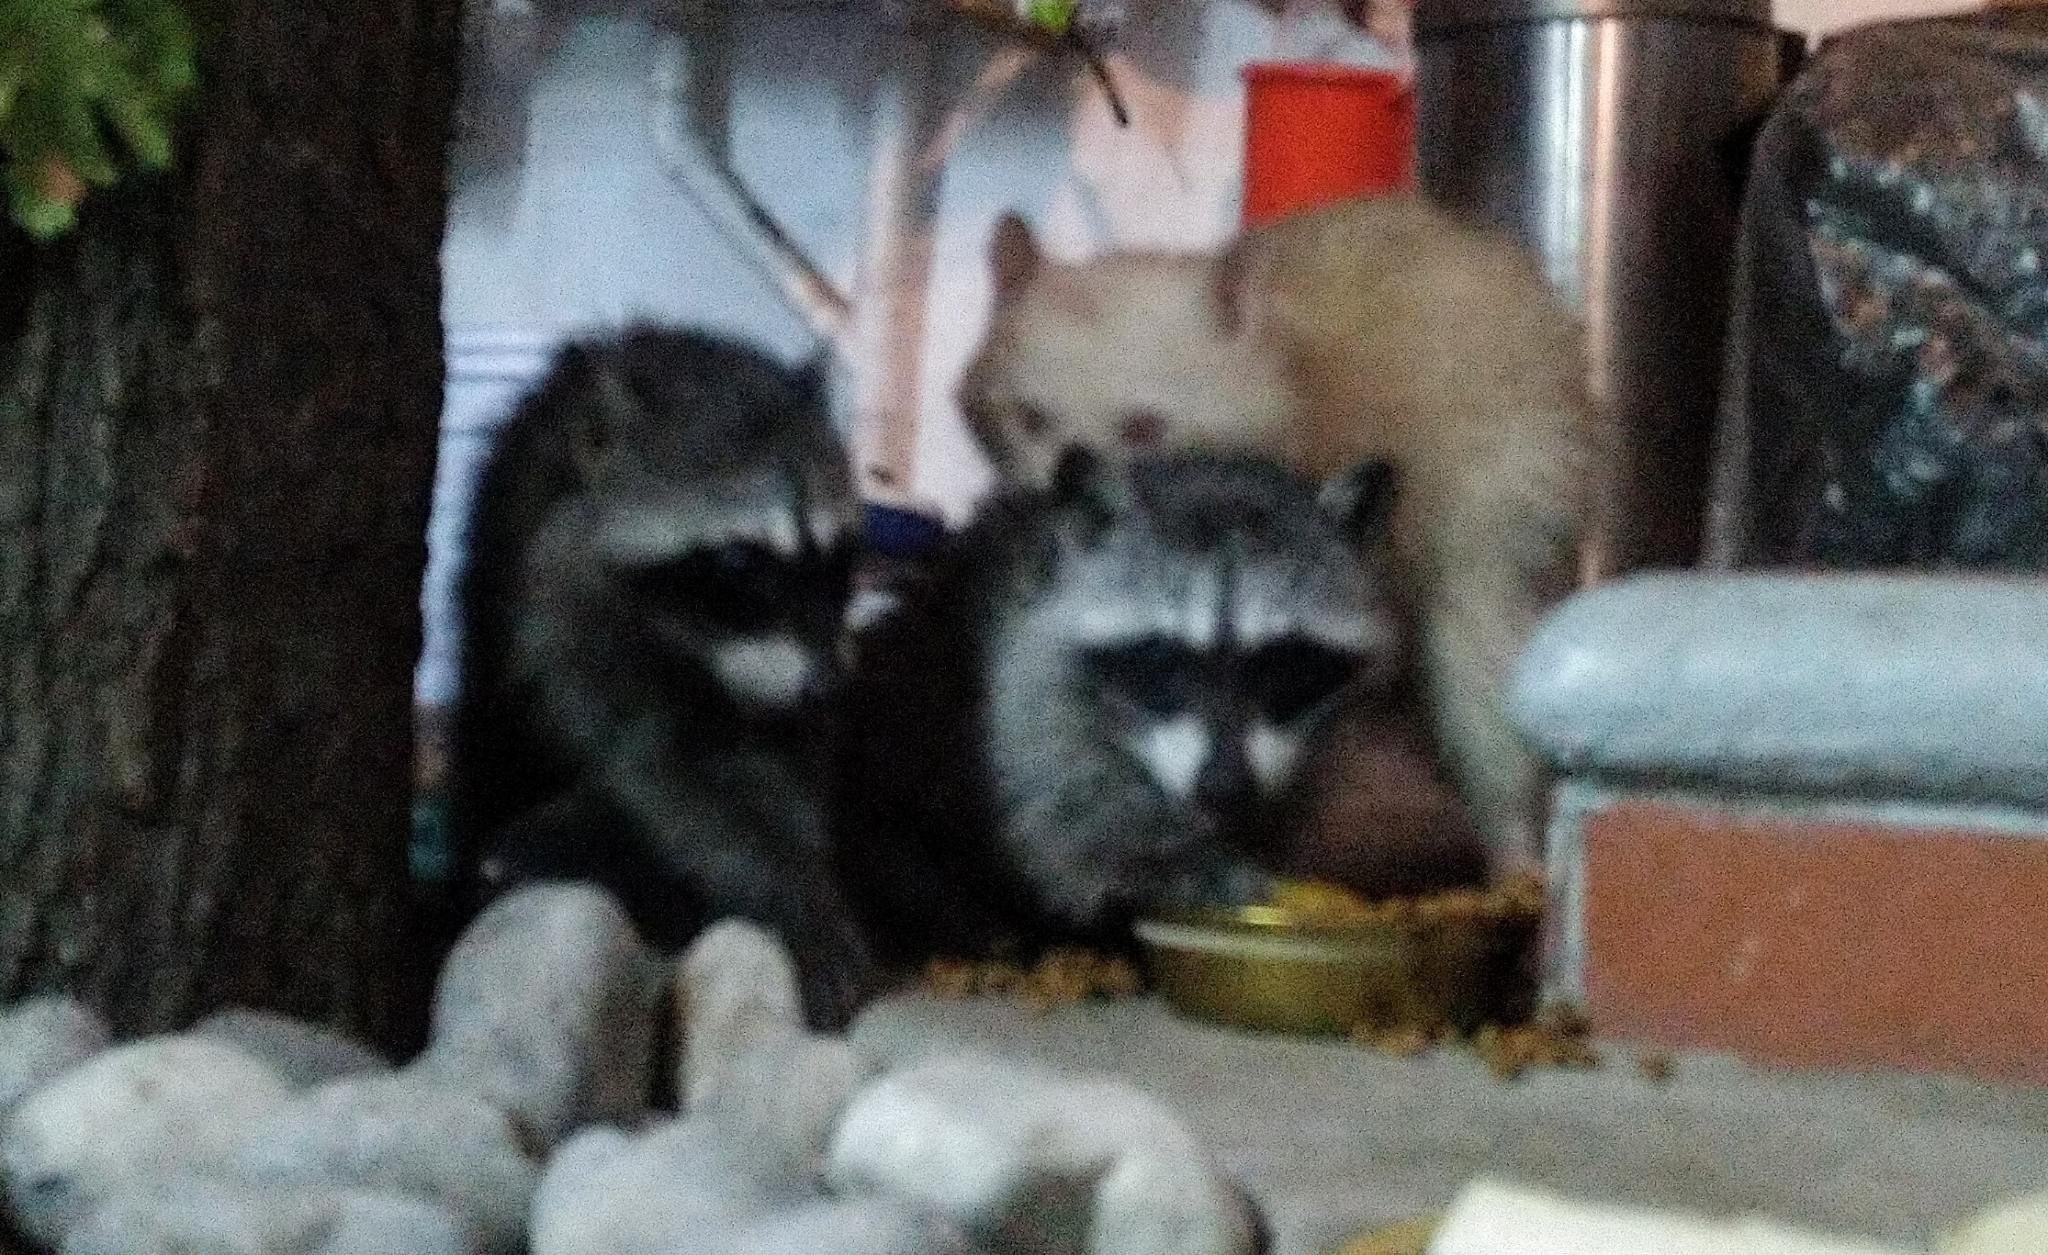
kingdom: Animalia
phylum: Chordata
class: Mammalia
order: Carnivora
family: Procyonidae
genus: Procyon
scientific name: Procyon lotor
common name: Raccoon
